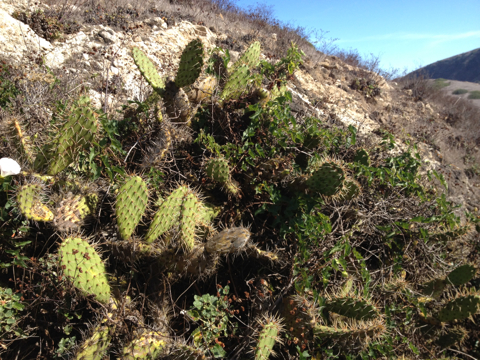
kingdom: Plantae
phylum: Tracheophyta
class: Magnoliopsida
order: Caryophyllales
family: Cactaceae
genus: Opuntia
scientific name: Opuntia littoralis
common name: Coastal prickly-pear
